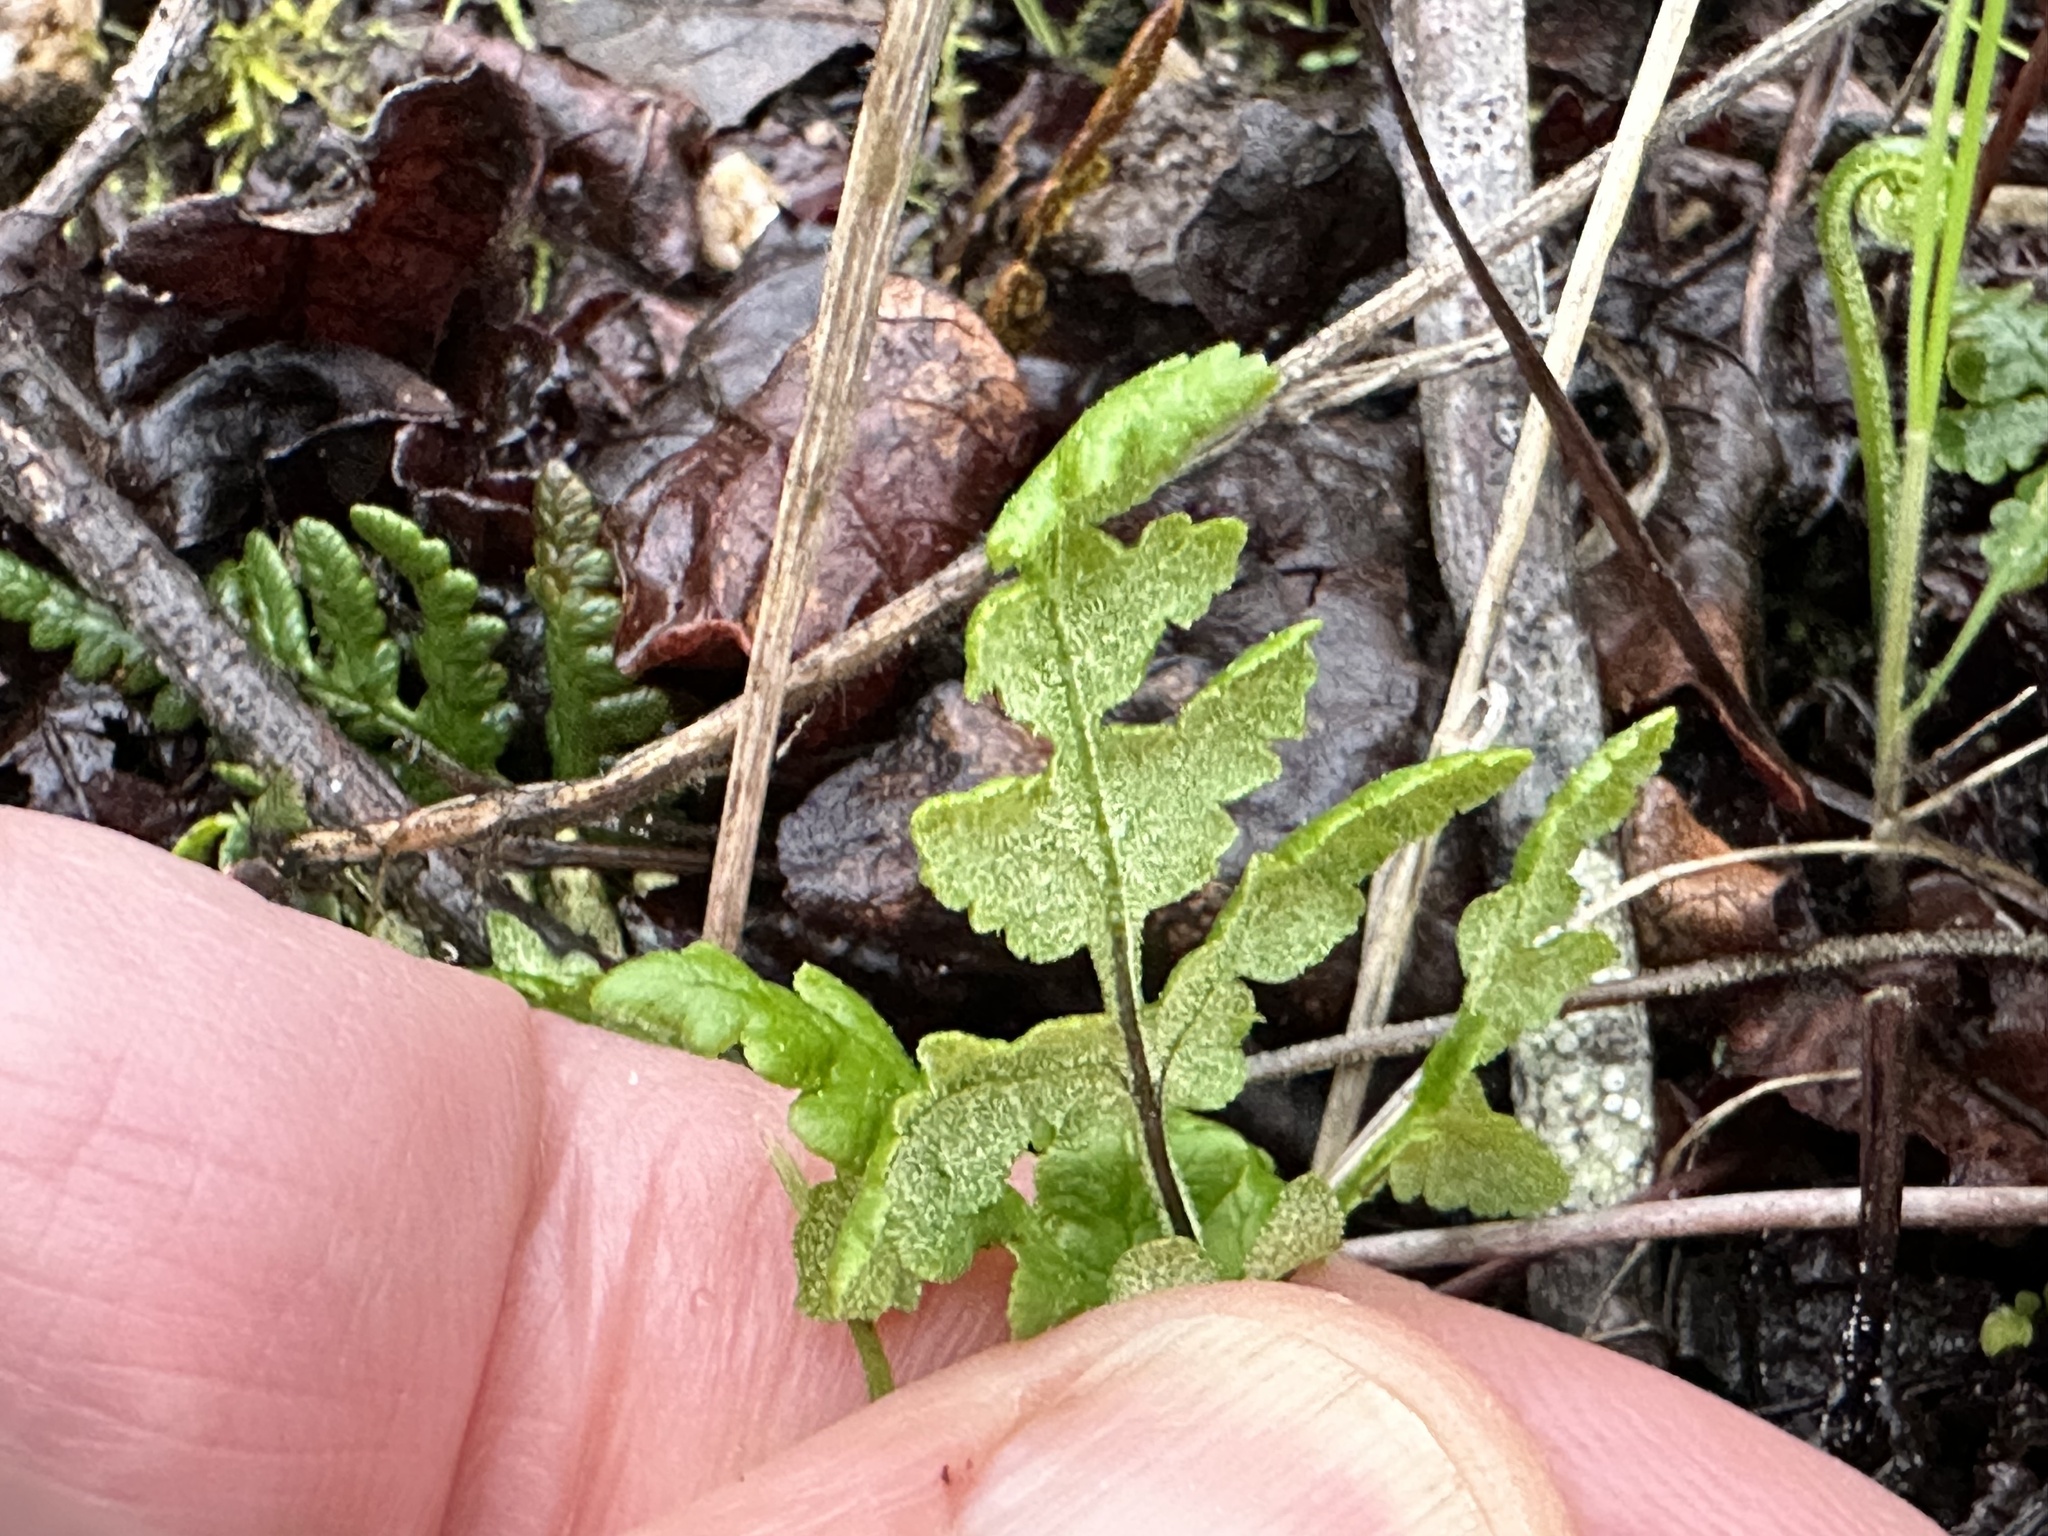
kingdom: Plantae
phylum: Tracheophyta
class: Polypodiopsida
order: Polypodiales
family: Pteridaceae
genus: Pentagramma
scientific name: Pentagramma triangularis
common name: Gold fern
